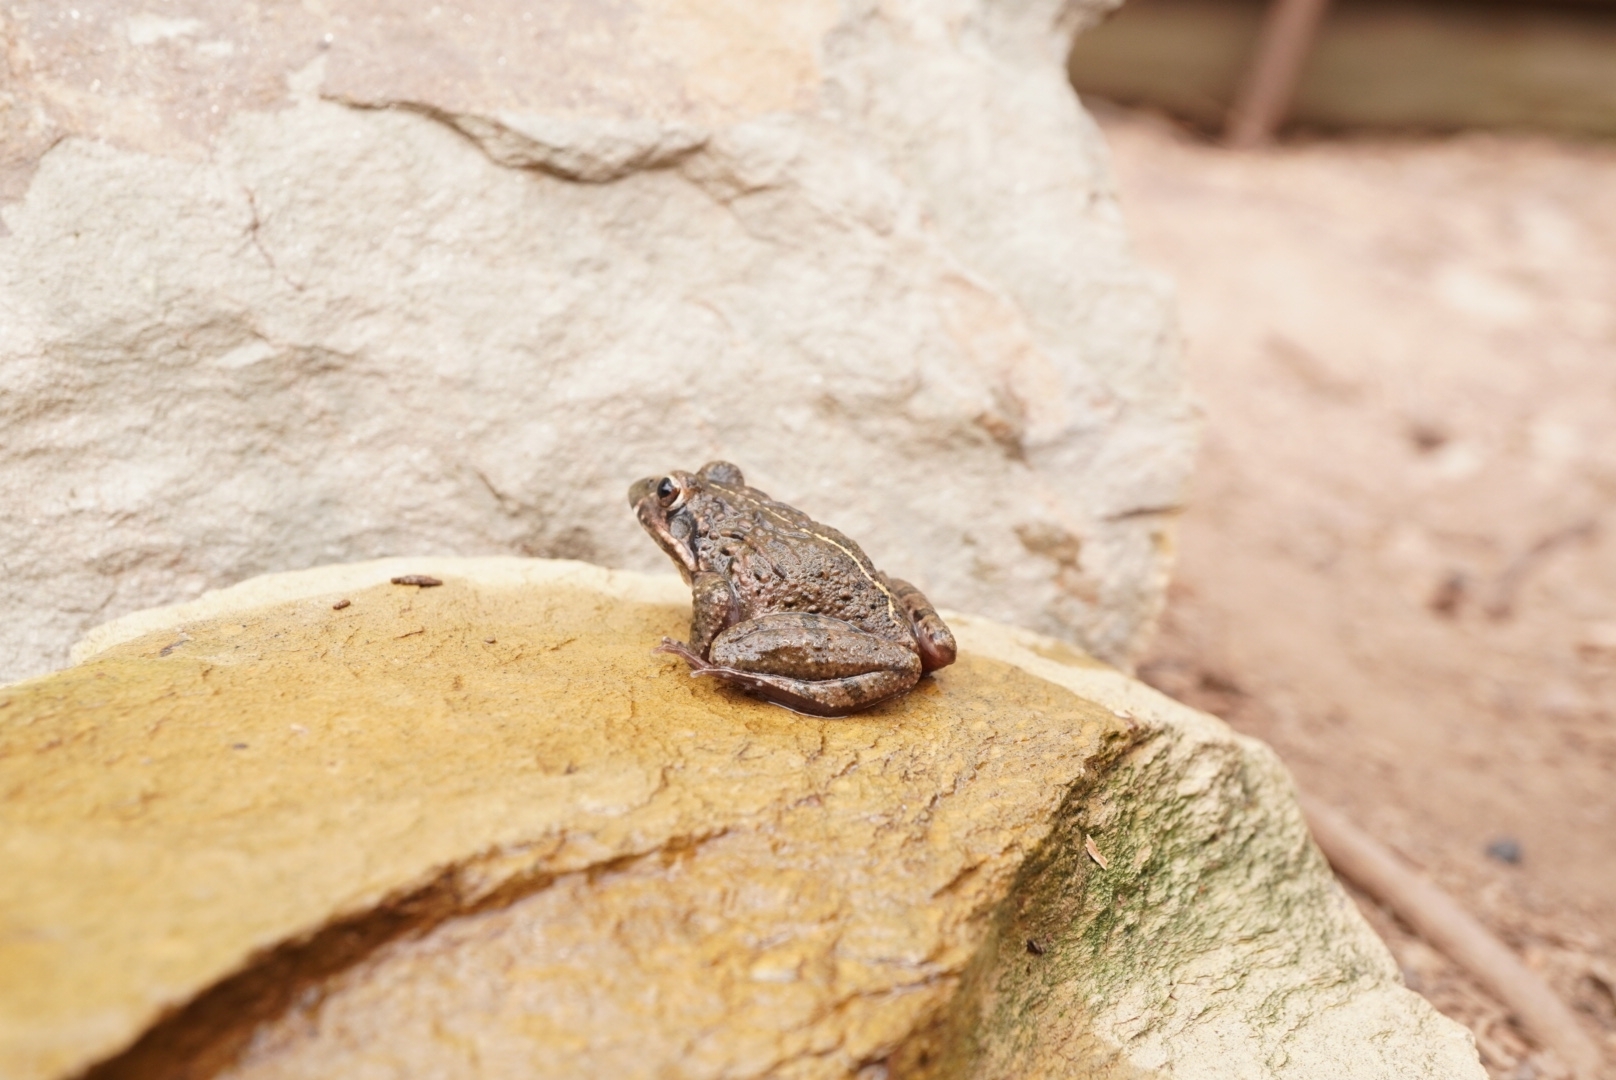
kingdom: Animalia
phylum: Chordata
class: Amphibia
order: Anura
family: Pyxicephalidae
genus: Strongylopus
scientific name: Strongylopus grayii
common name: Gray's stream frog
